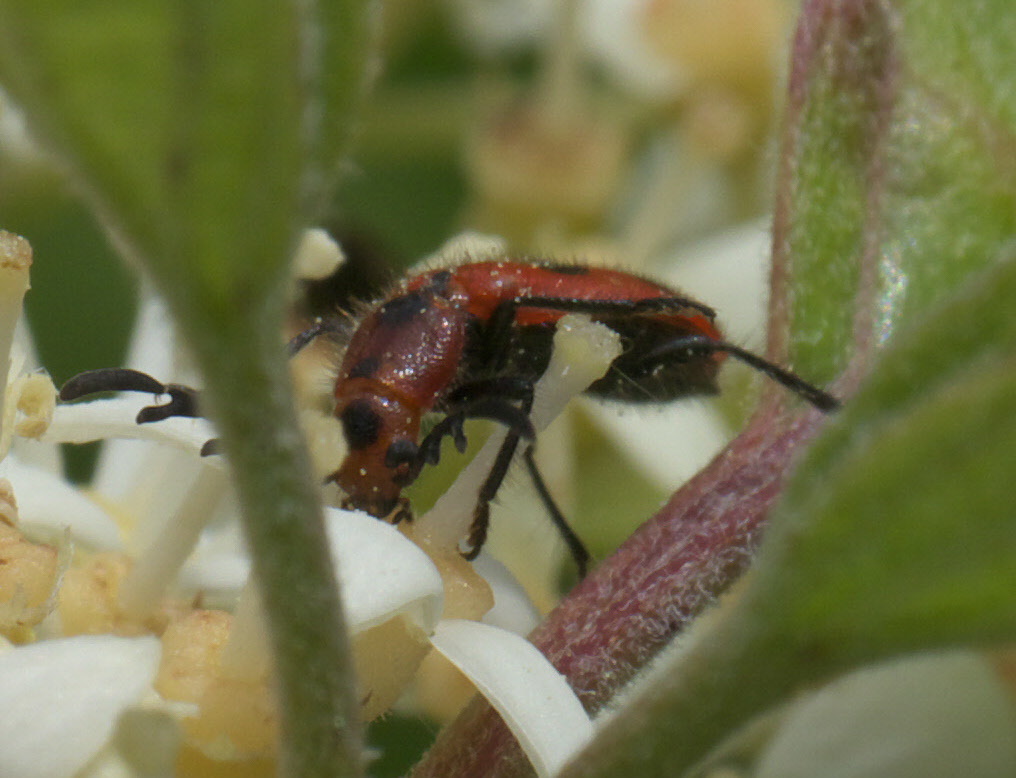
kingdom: Animalia
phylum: Arthropoda
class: Insecta
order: Coleoptera
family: Cleridae
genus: Pelonides
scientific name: Pelonides
